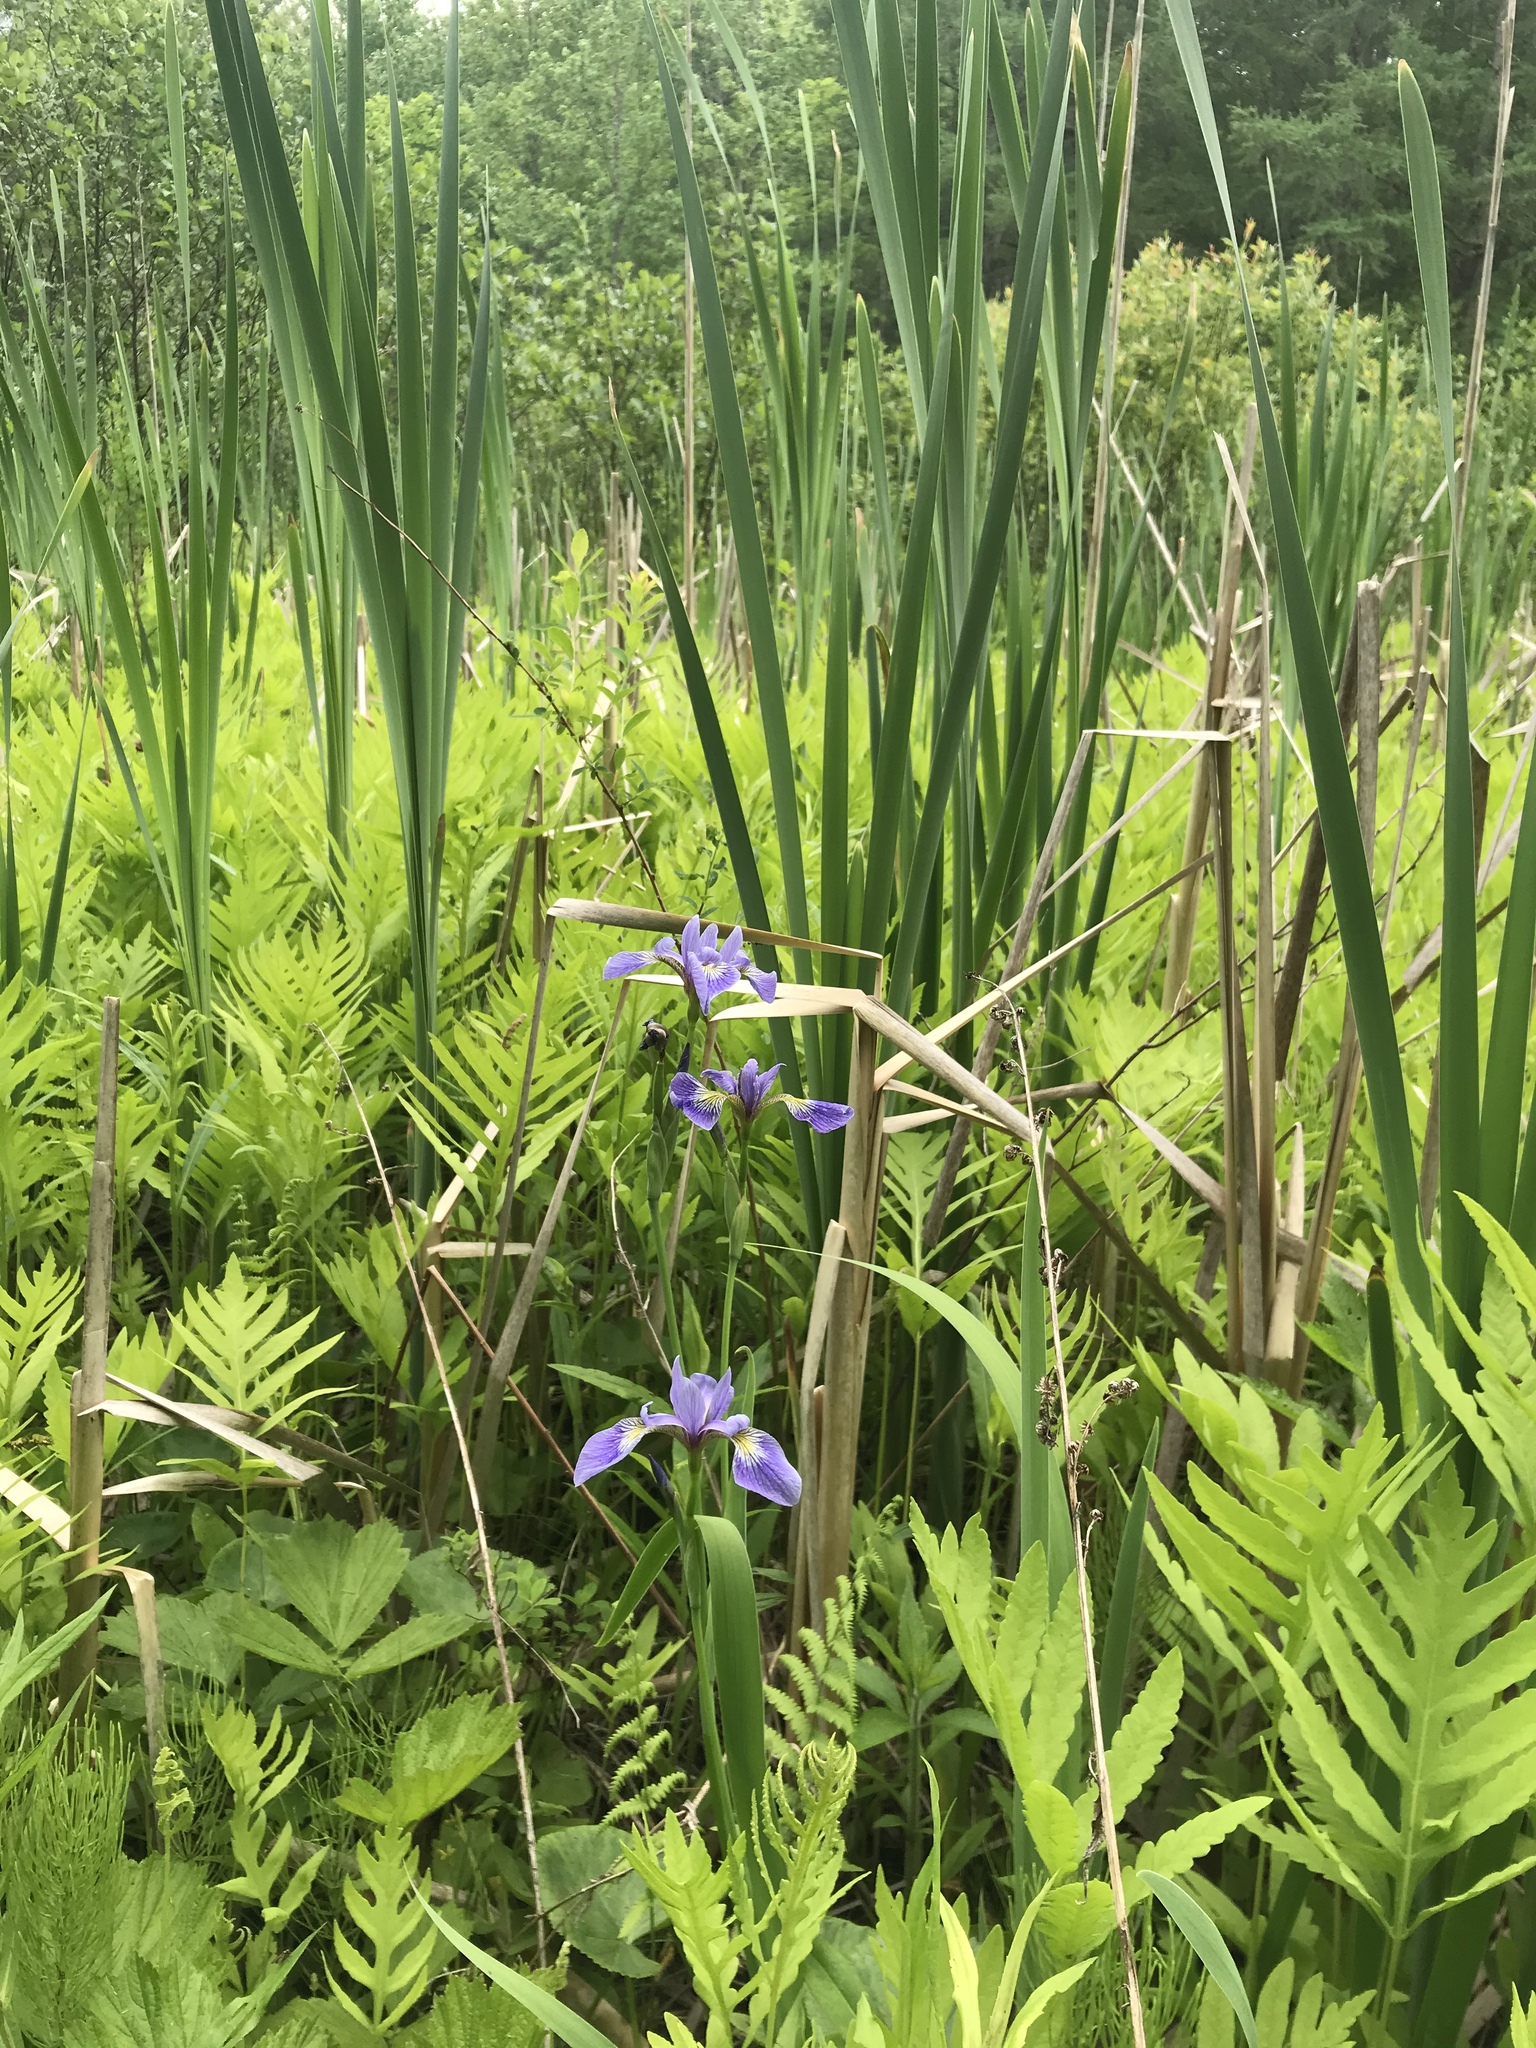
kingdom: Plantae
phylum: Tracheophyta
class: Liliopsida
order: Asparagales
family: Iridaceae
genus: Iris
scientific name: Iris versicolor
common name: Purple iris
